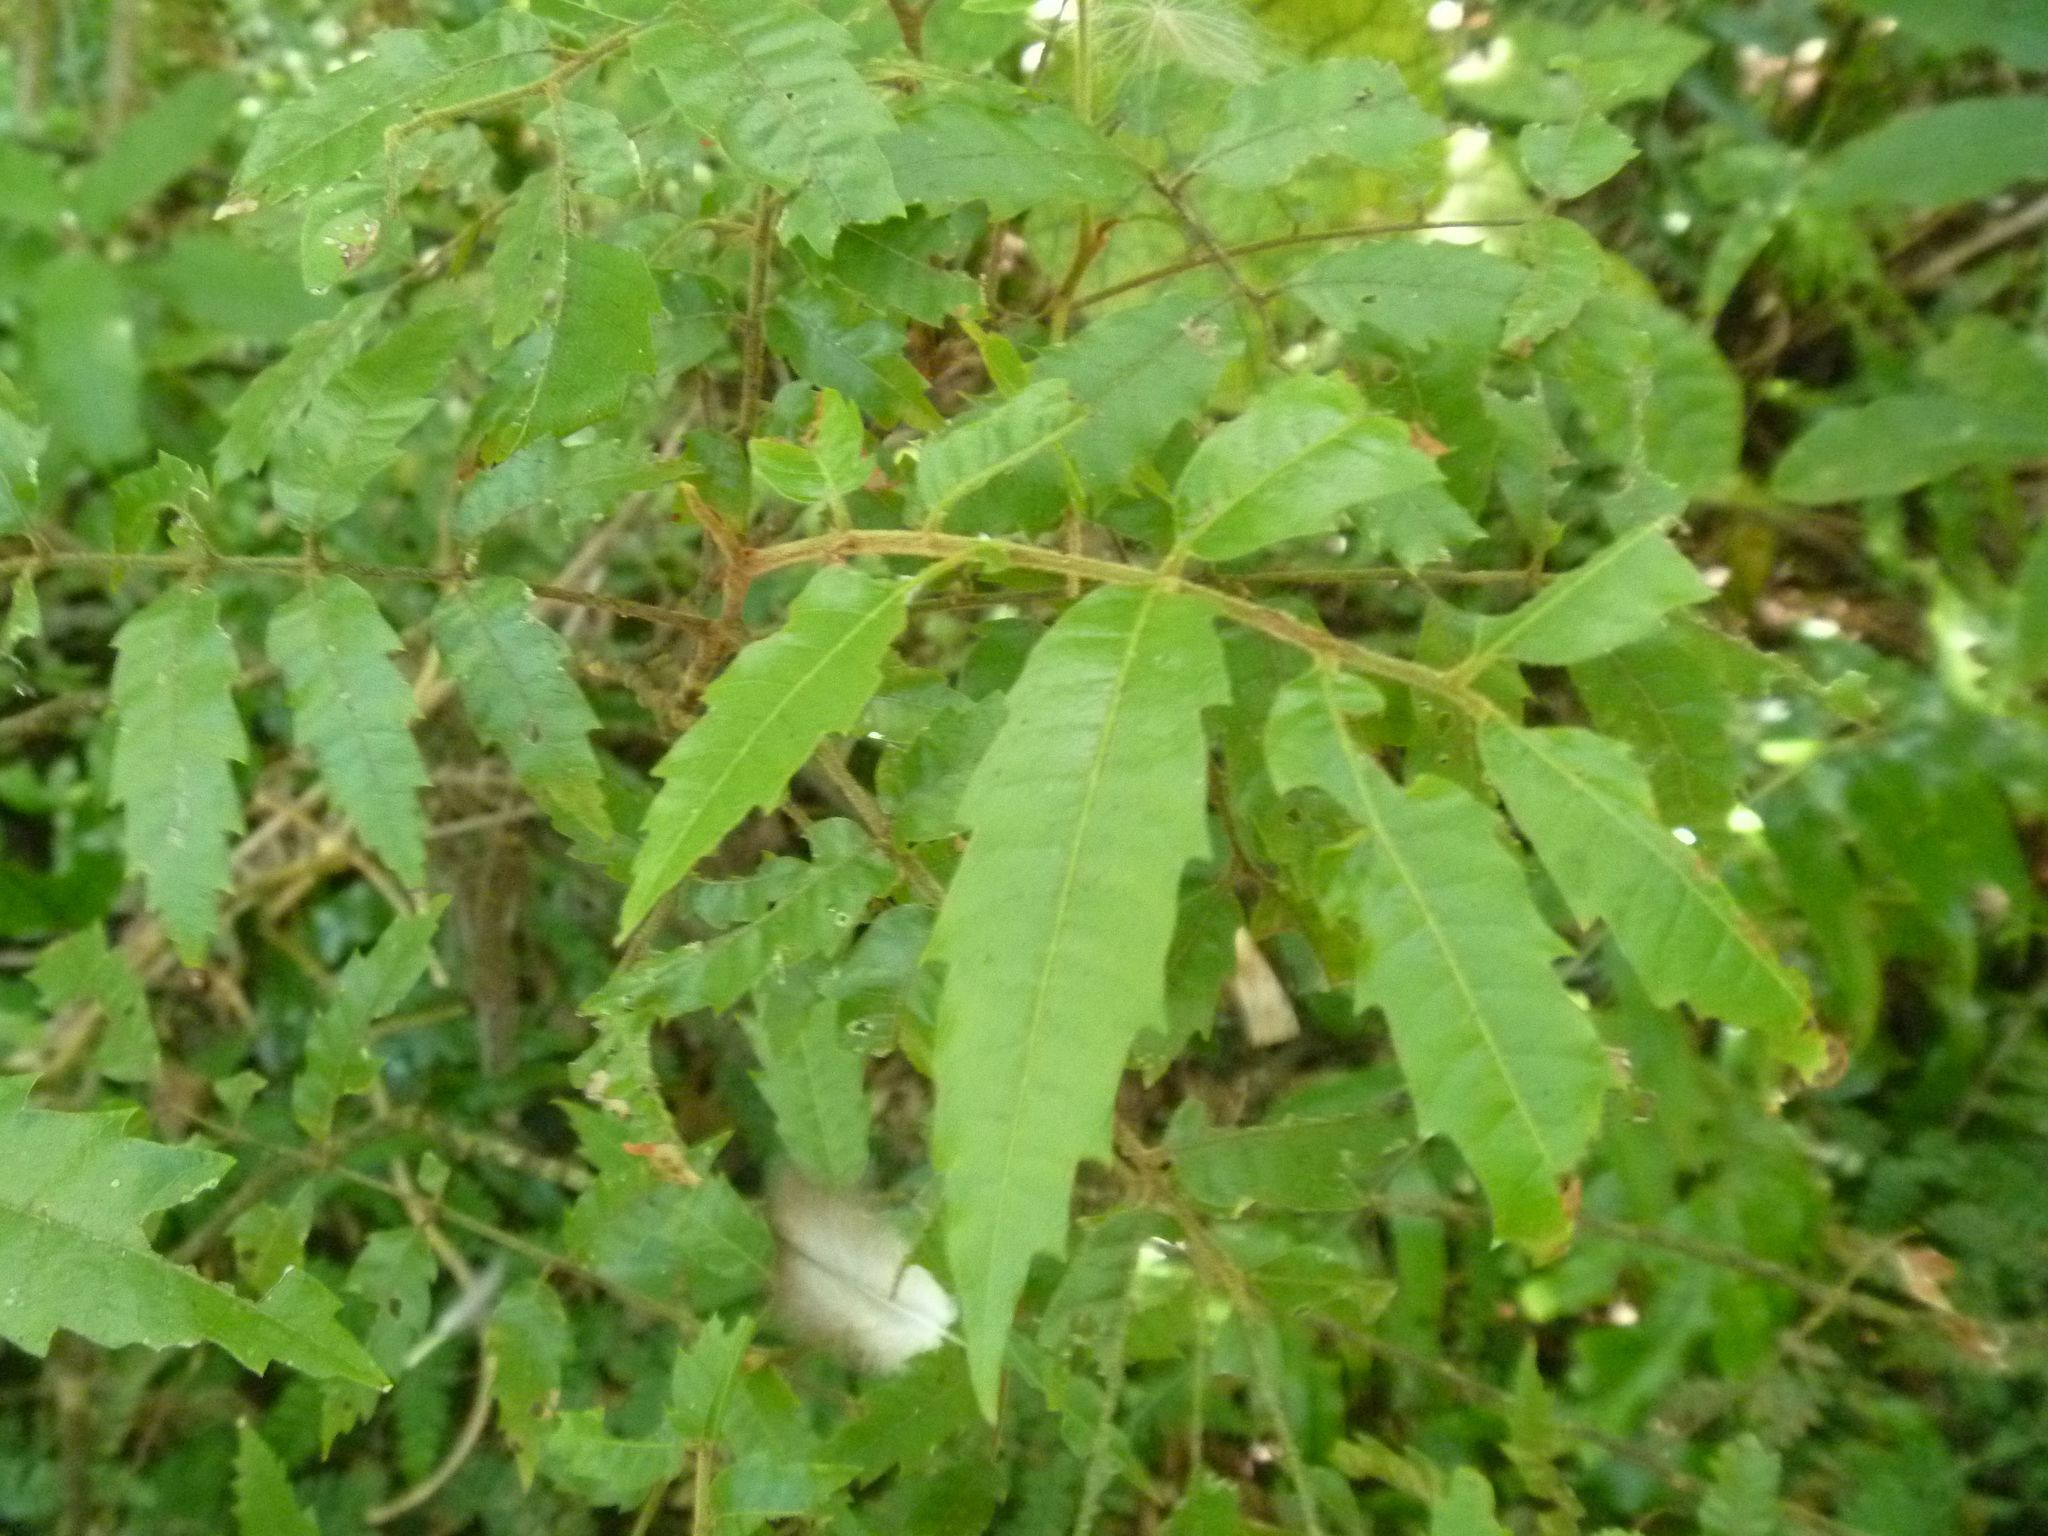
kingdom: Plantae
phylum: Tracheophyta
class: Magnoliopsida
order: Sapindales
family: Sapindaceae
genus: Alectryon
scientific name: Alectryon excelsus
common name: Three kings titoki
